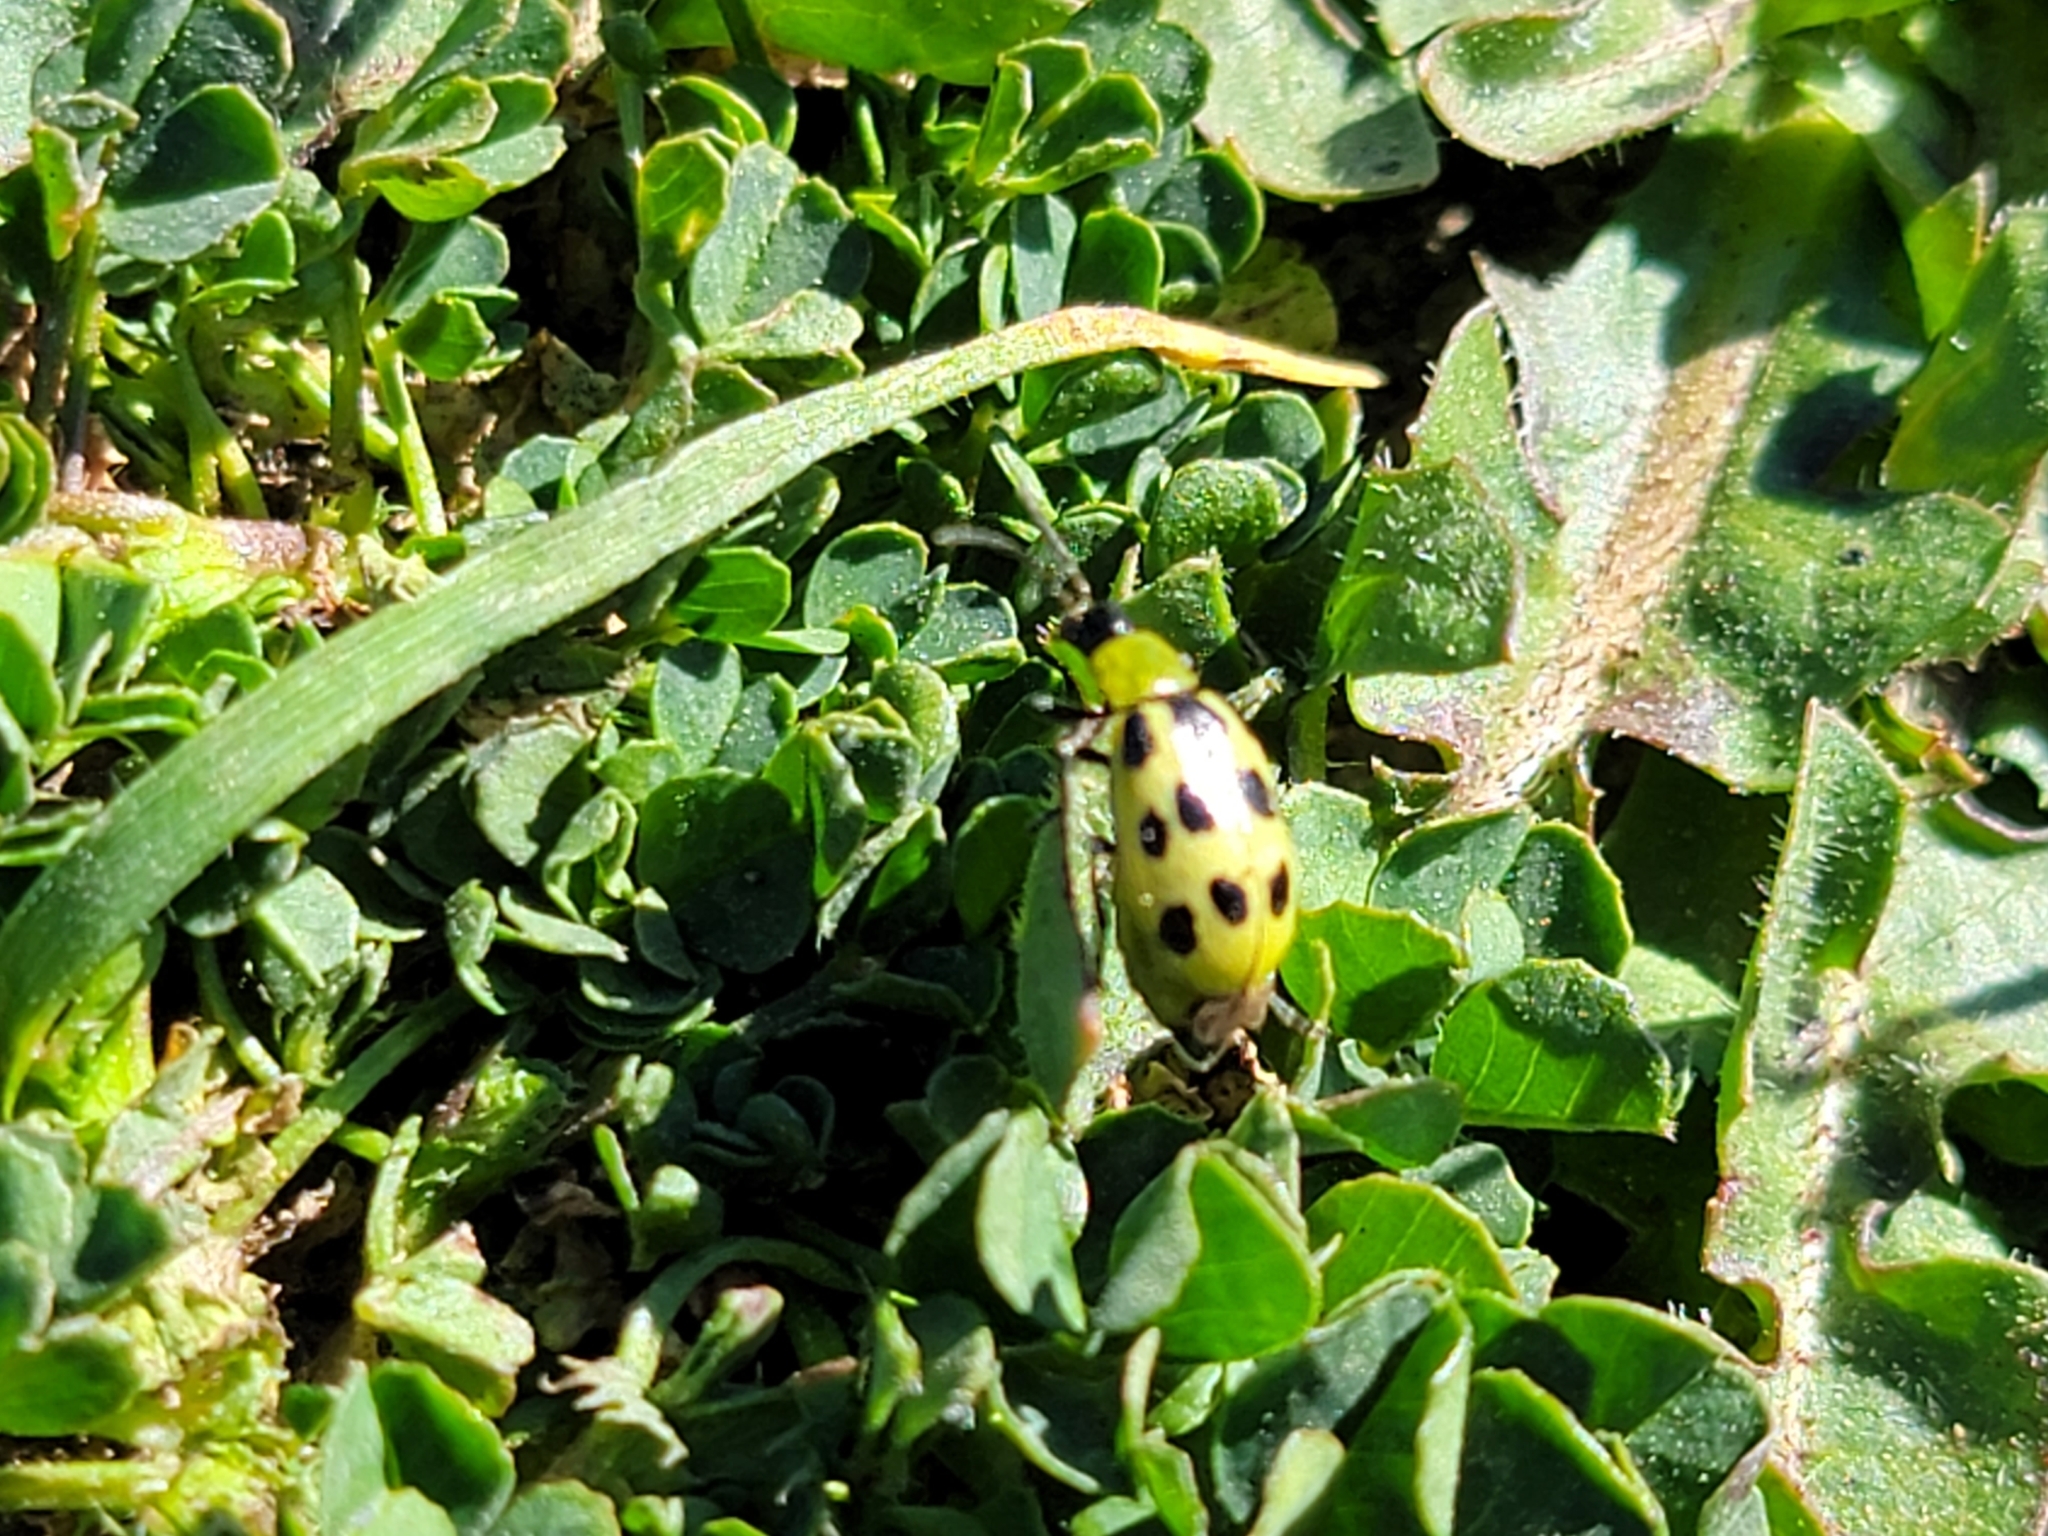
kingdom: Animalia
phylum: Arthropoda
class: Insecta
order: Coleoptera
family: Chrysomelidae
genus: Diabrotica
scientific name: Diabrotica undecimpunctata
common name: Spotted cucumber beetle
